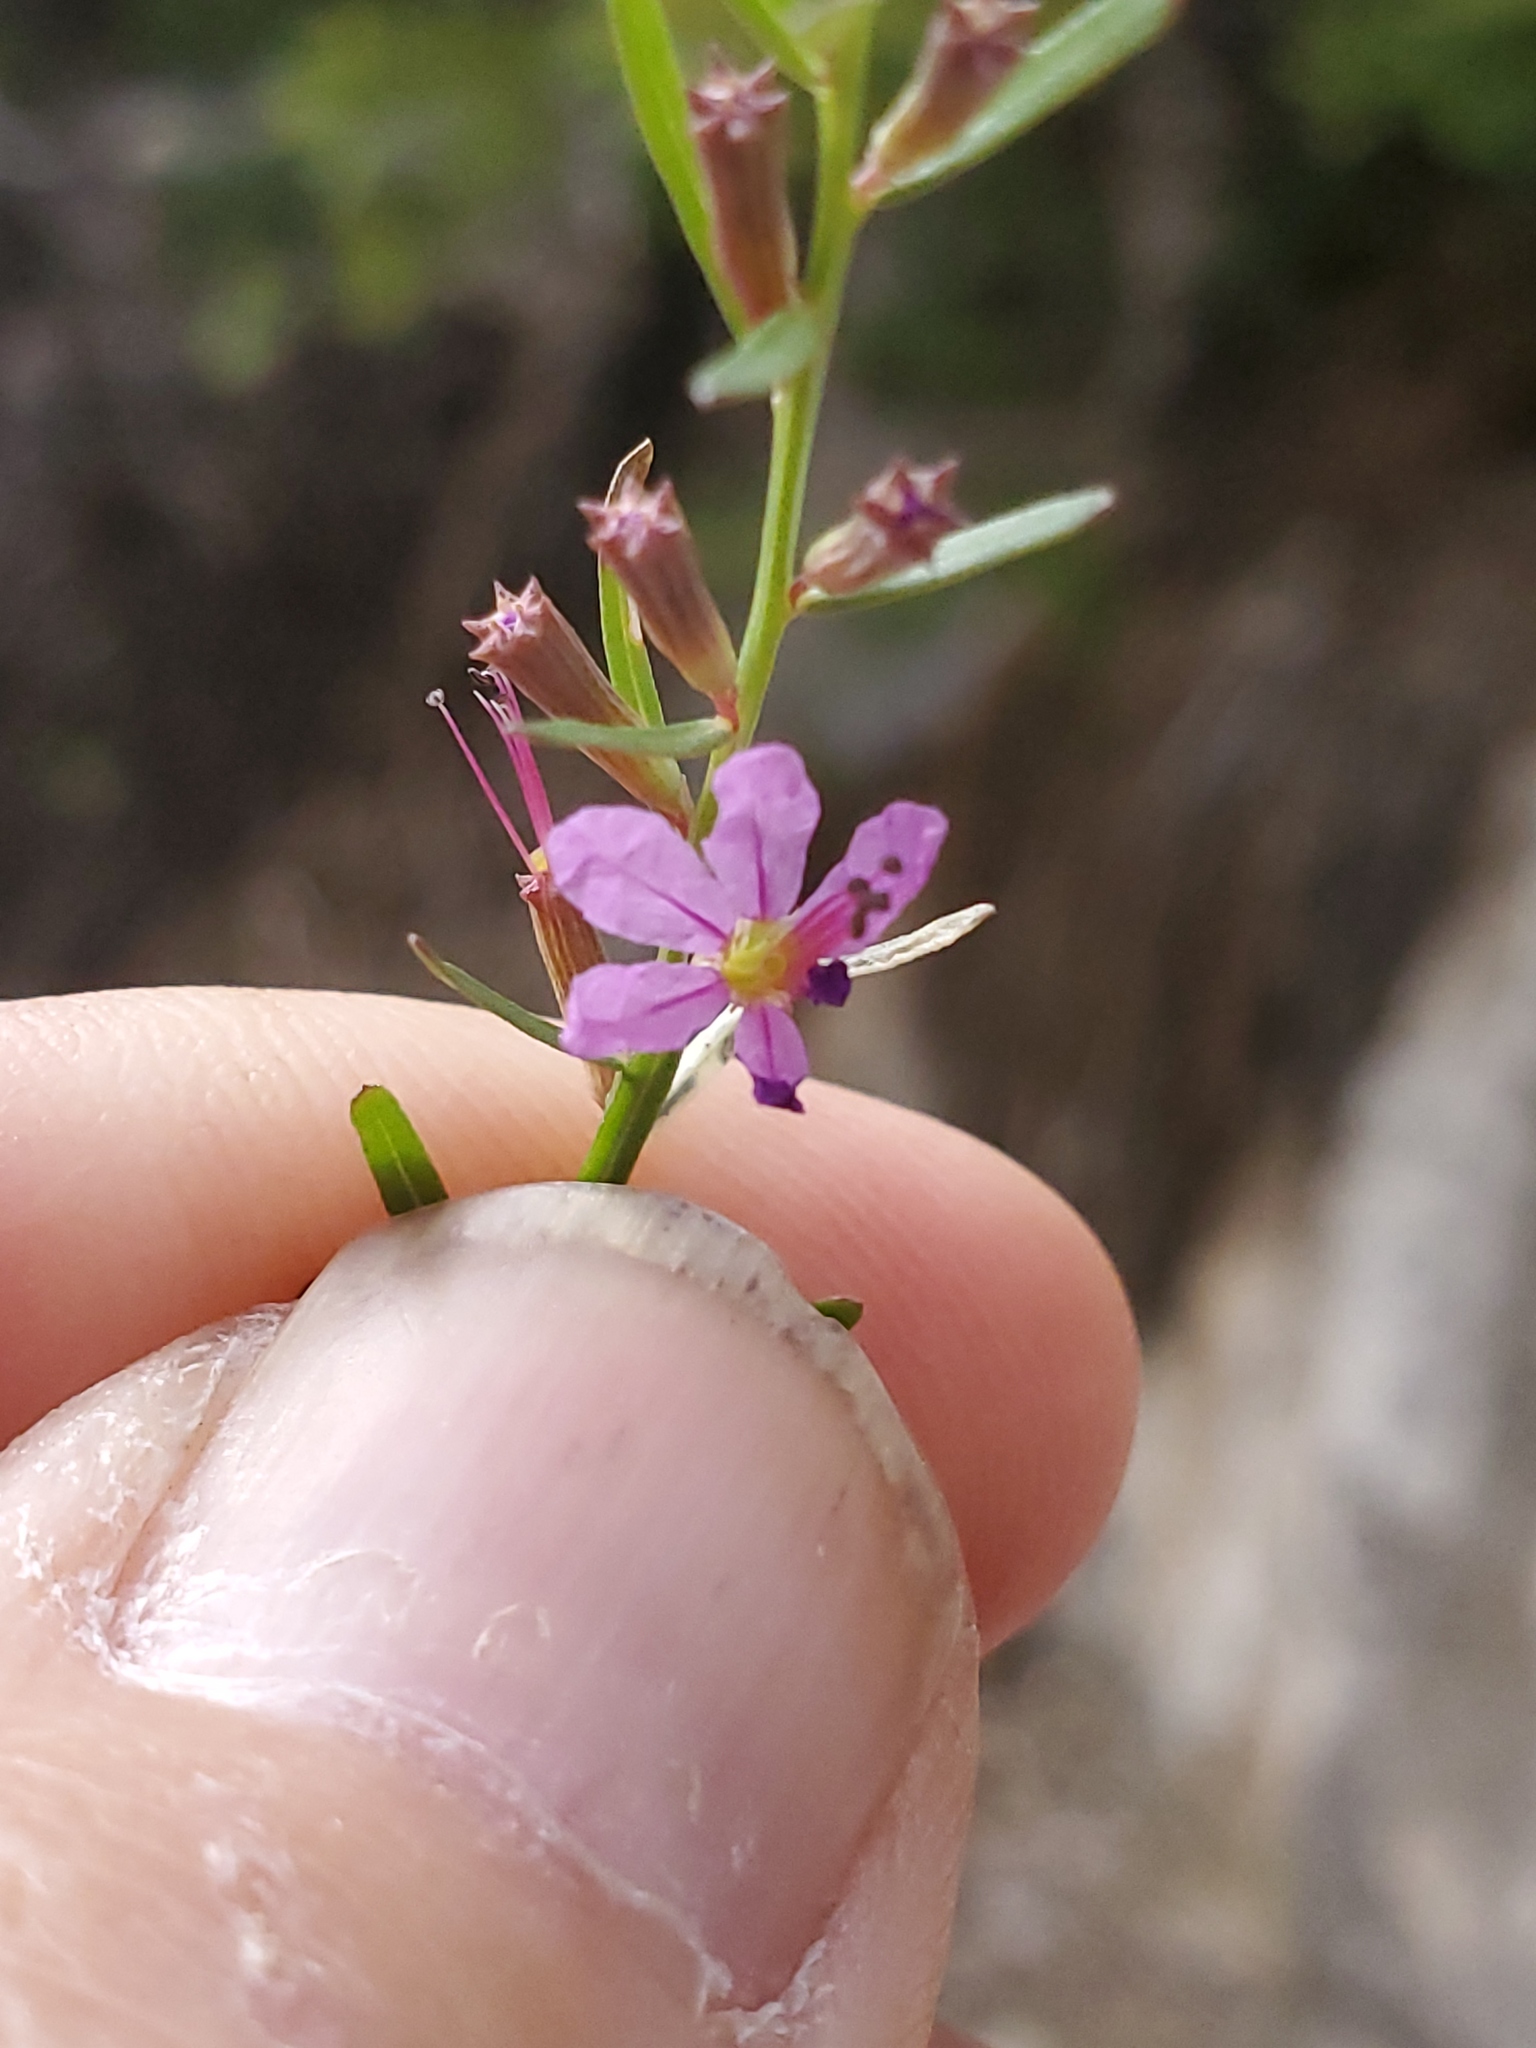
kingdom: Plantae
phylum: Tracheophyta
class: Magnoliopsida
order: Myrtales
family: Lythraceae
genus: Lythrum
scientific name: Lythrum californicum
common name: California loosestrife
